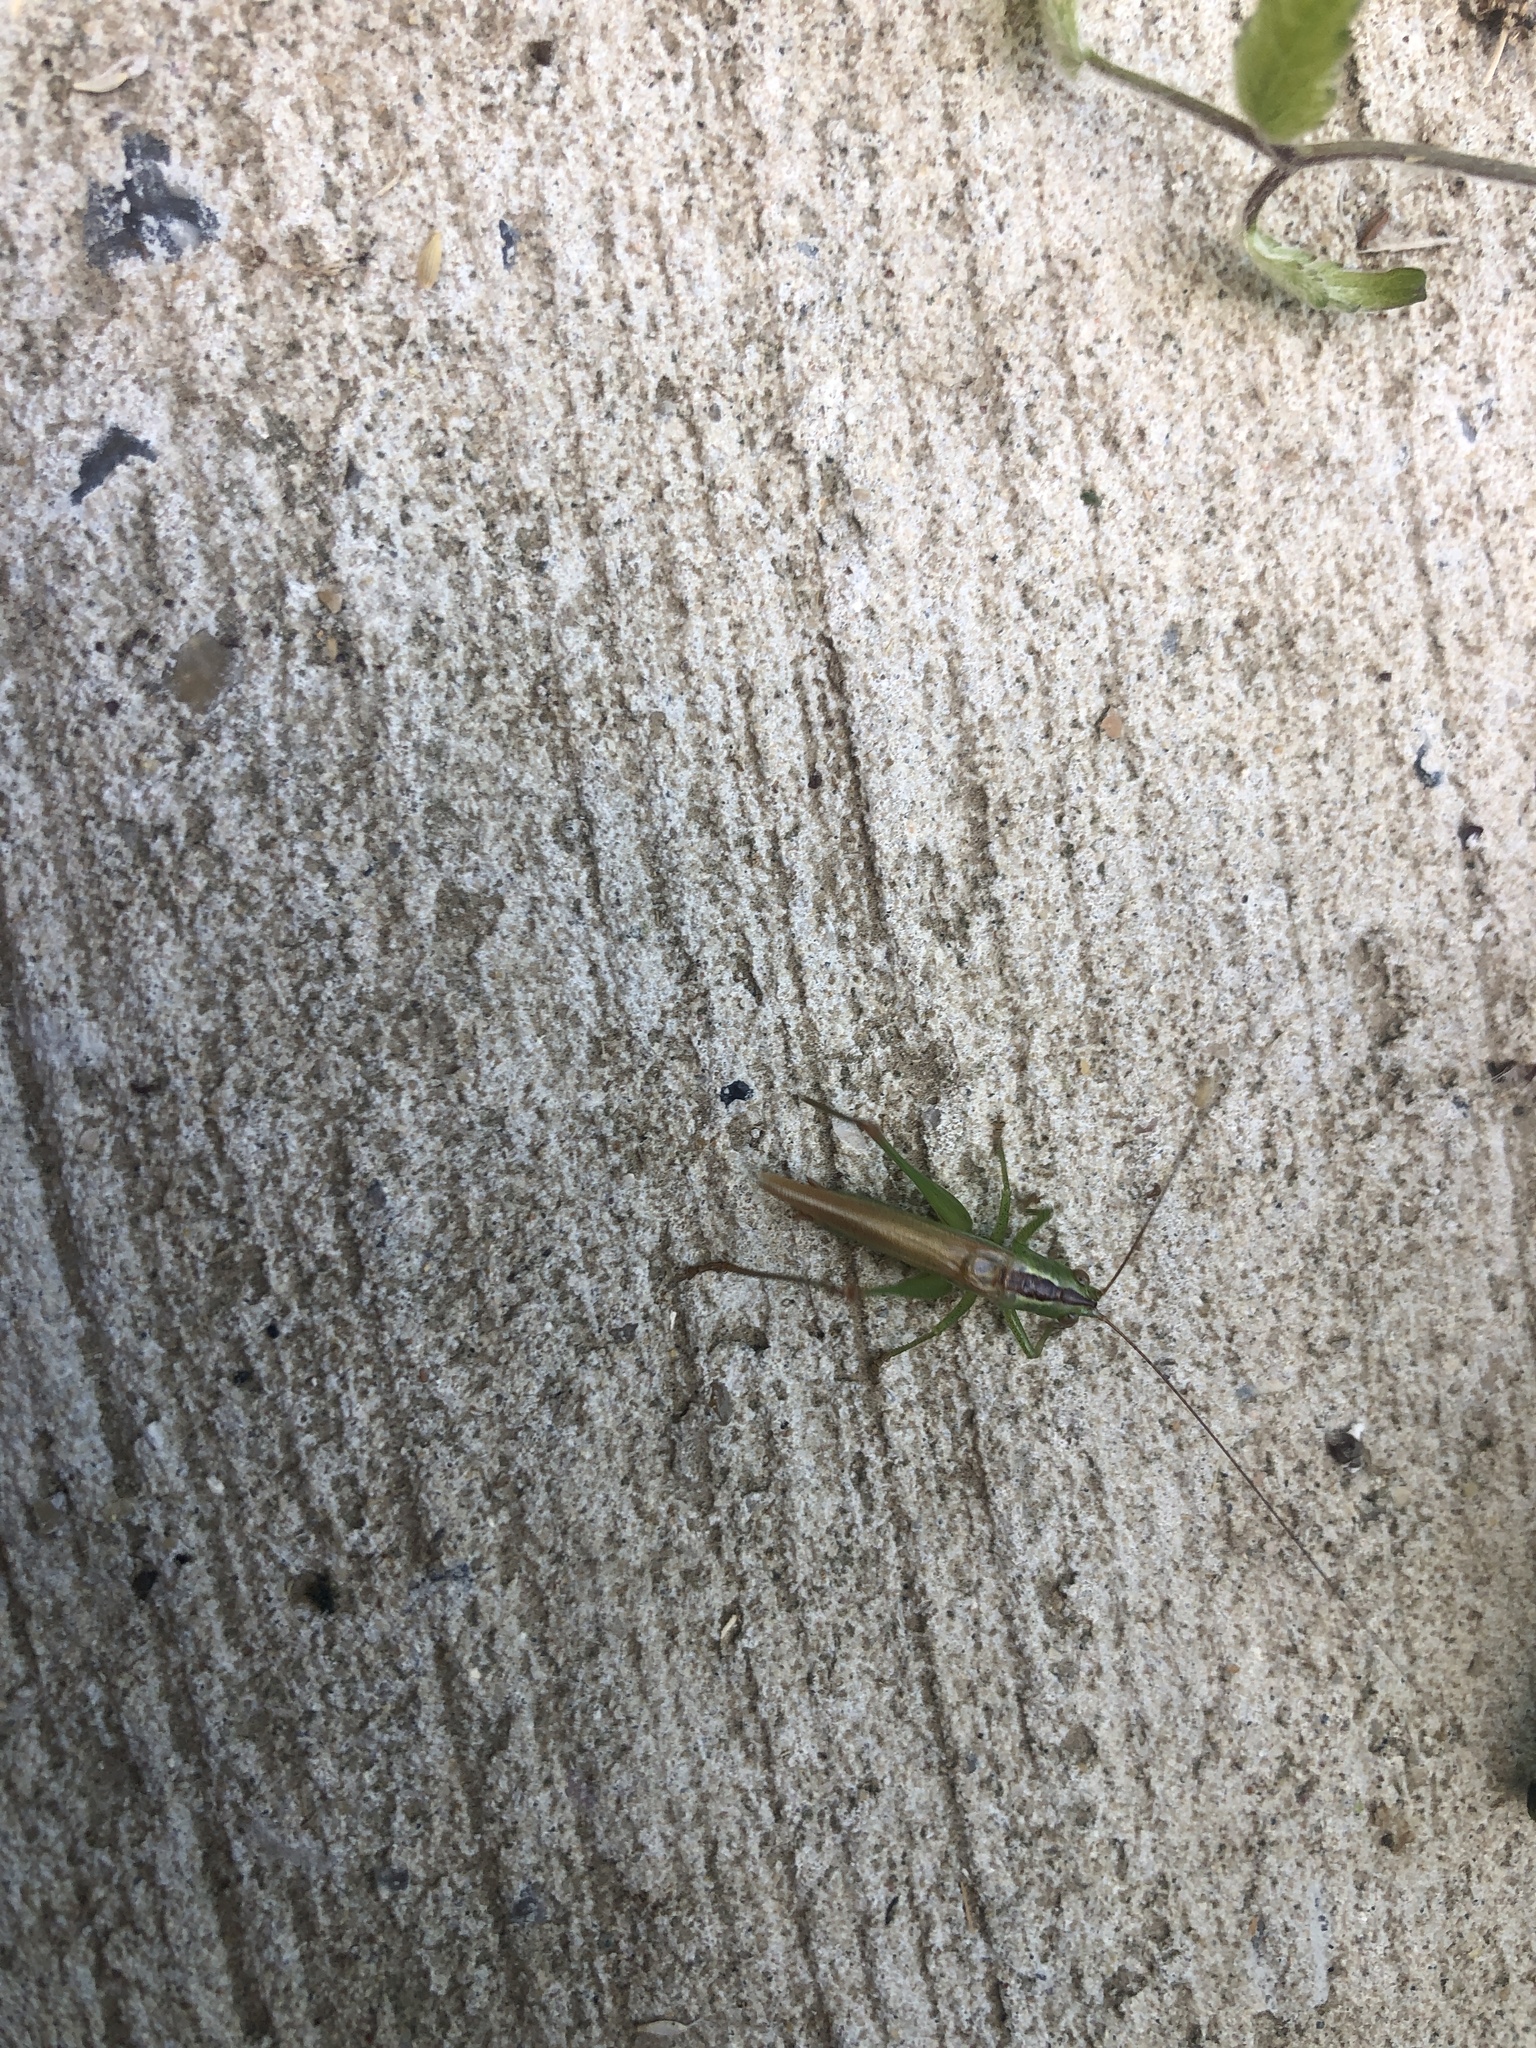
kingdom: Animalia
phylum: Arthropoda
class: Insecta
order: Orthoptera
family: Tettigoniidae
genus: Conocephalus
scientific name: Conocephalus fuscus
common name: Long-winged conehead
